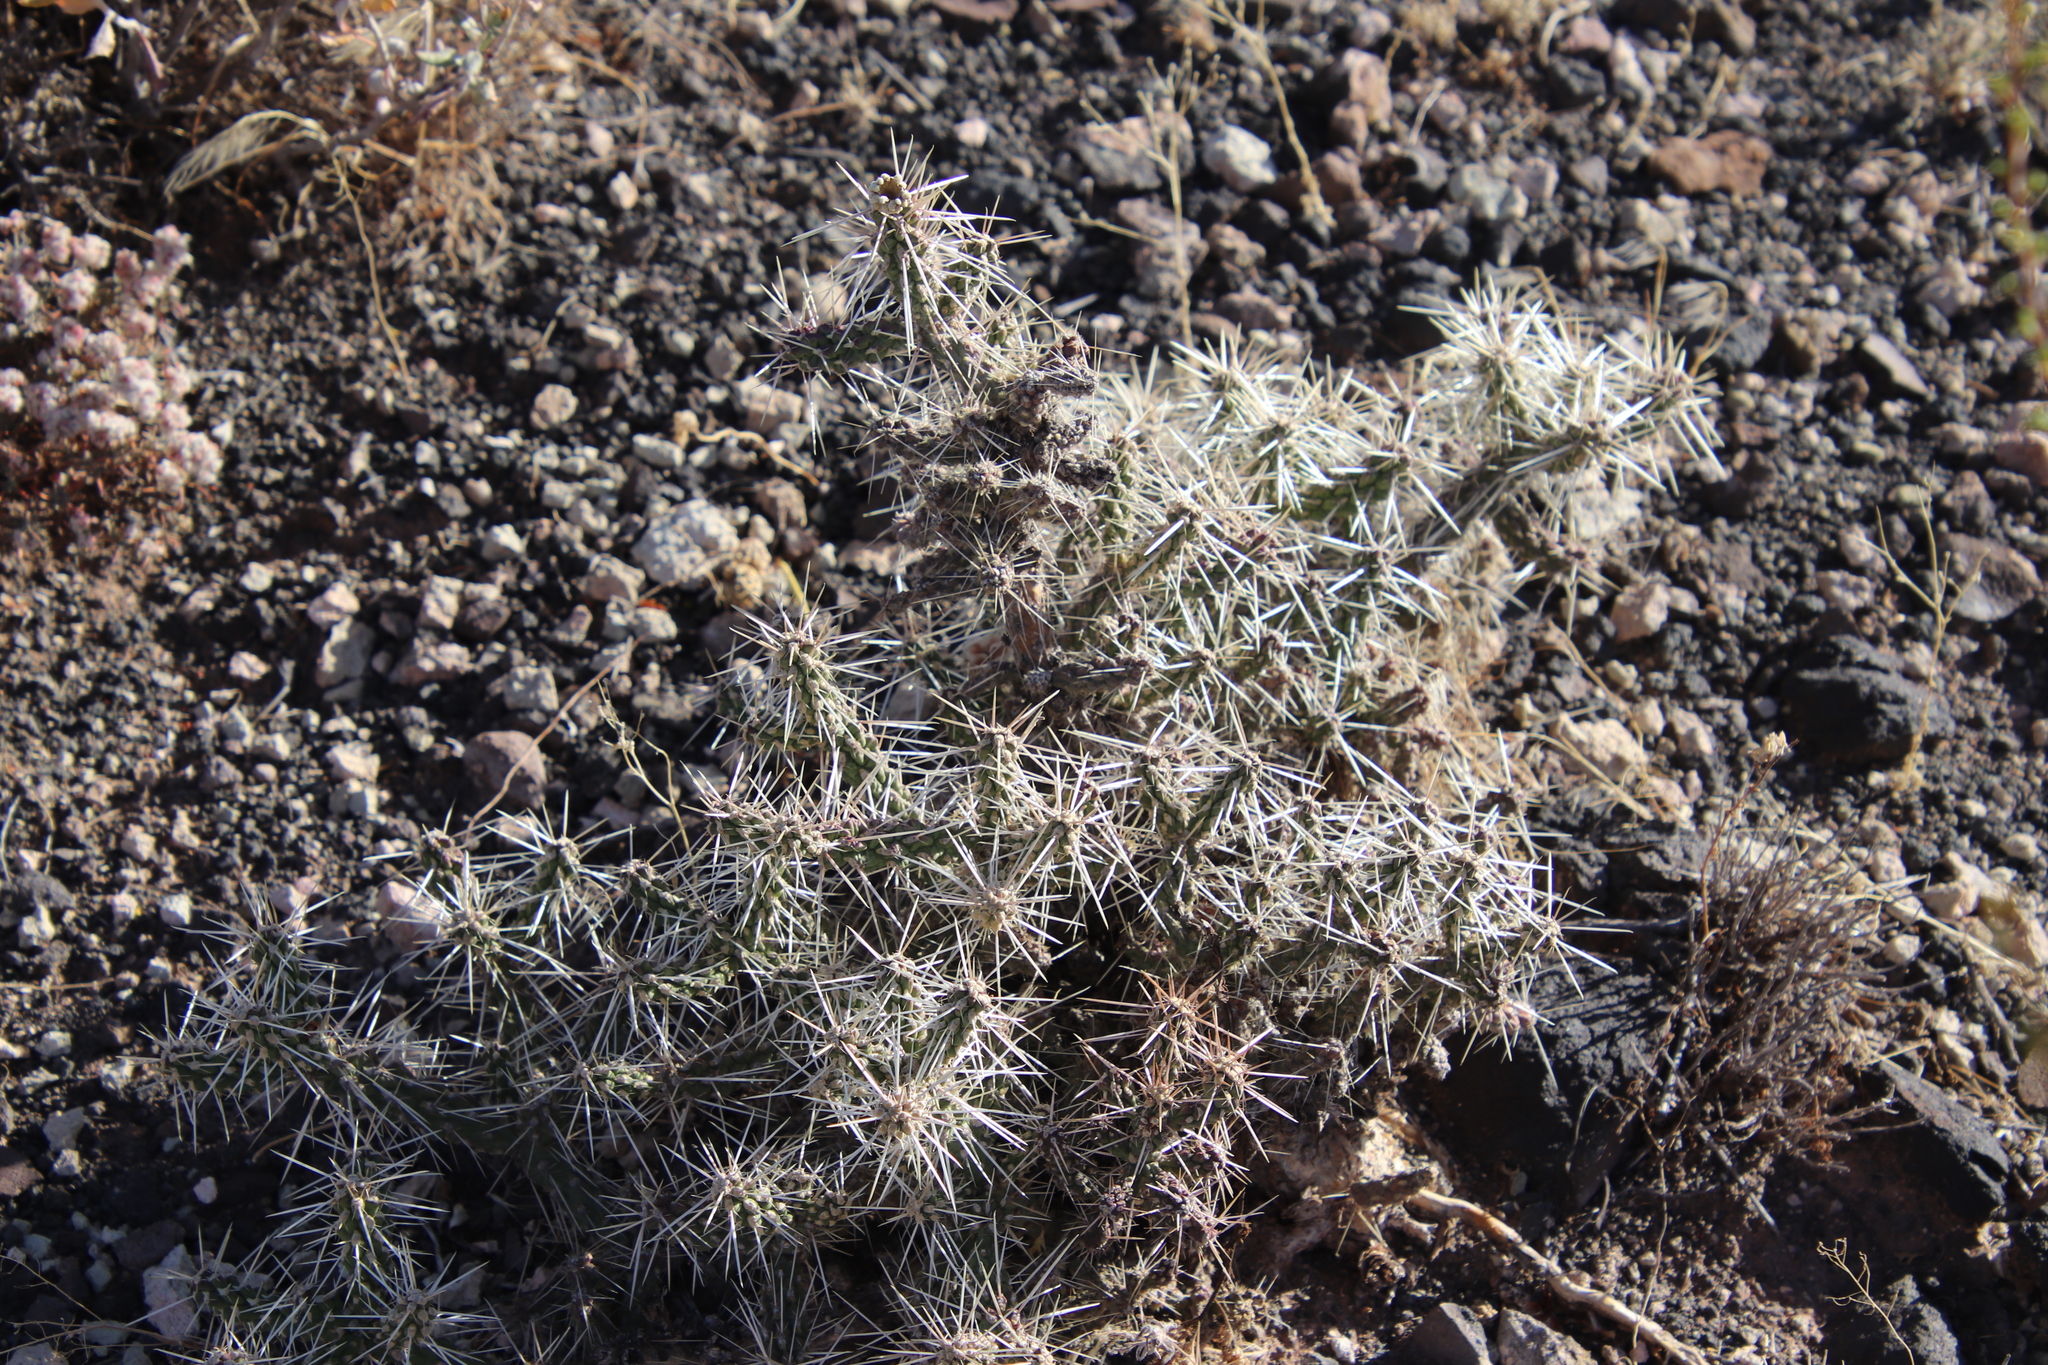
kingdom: Plantae
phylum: Tracheophyta
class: Magnoliopsida
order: Caryophyllales
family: Cactaceae
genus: Cylindropuntia
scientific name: Cylindropuntia whipplei
